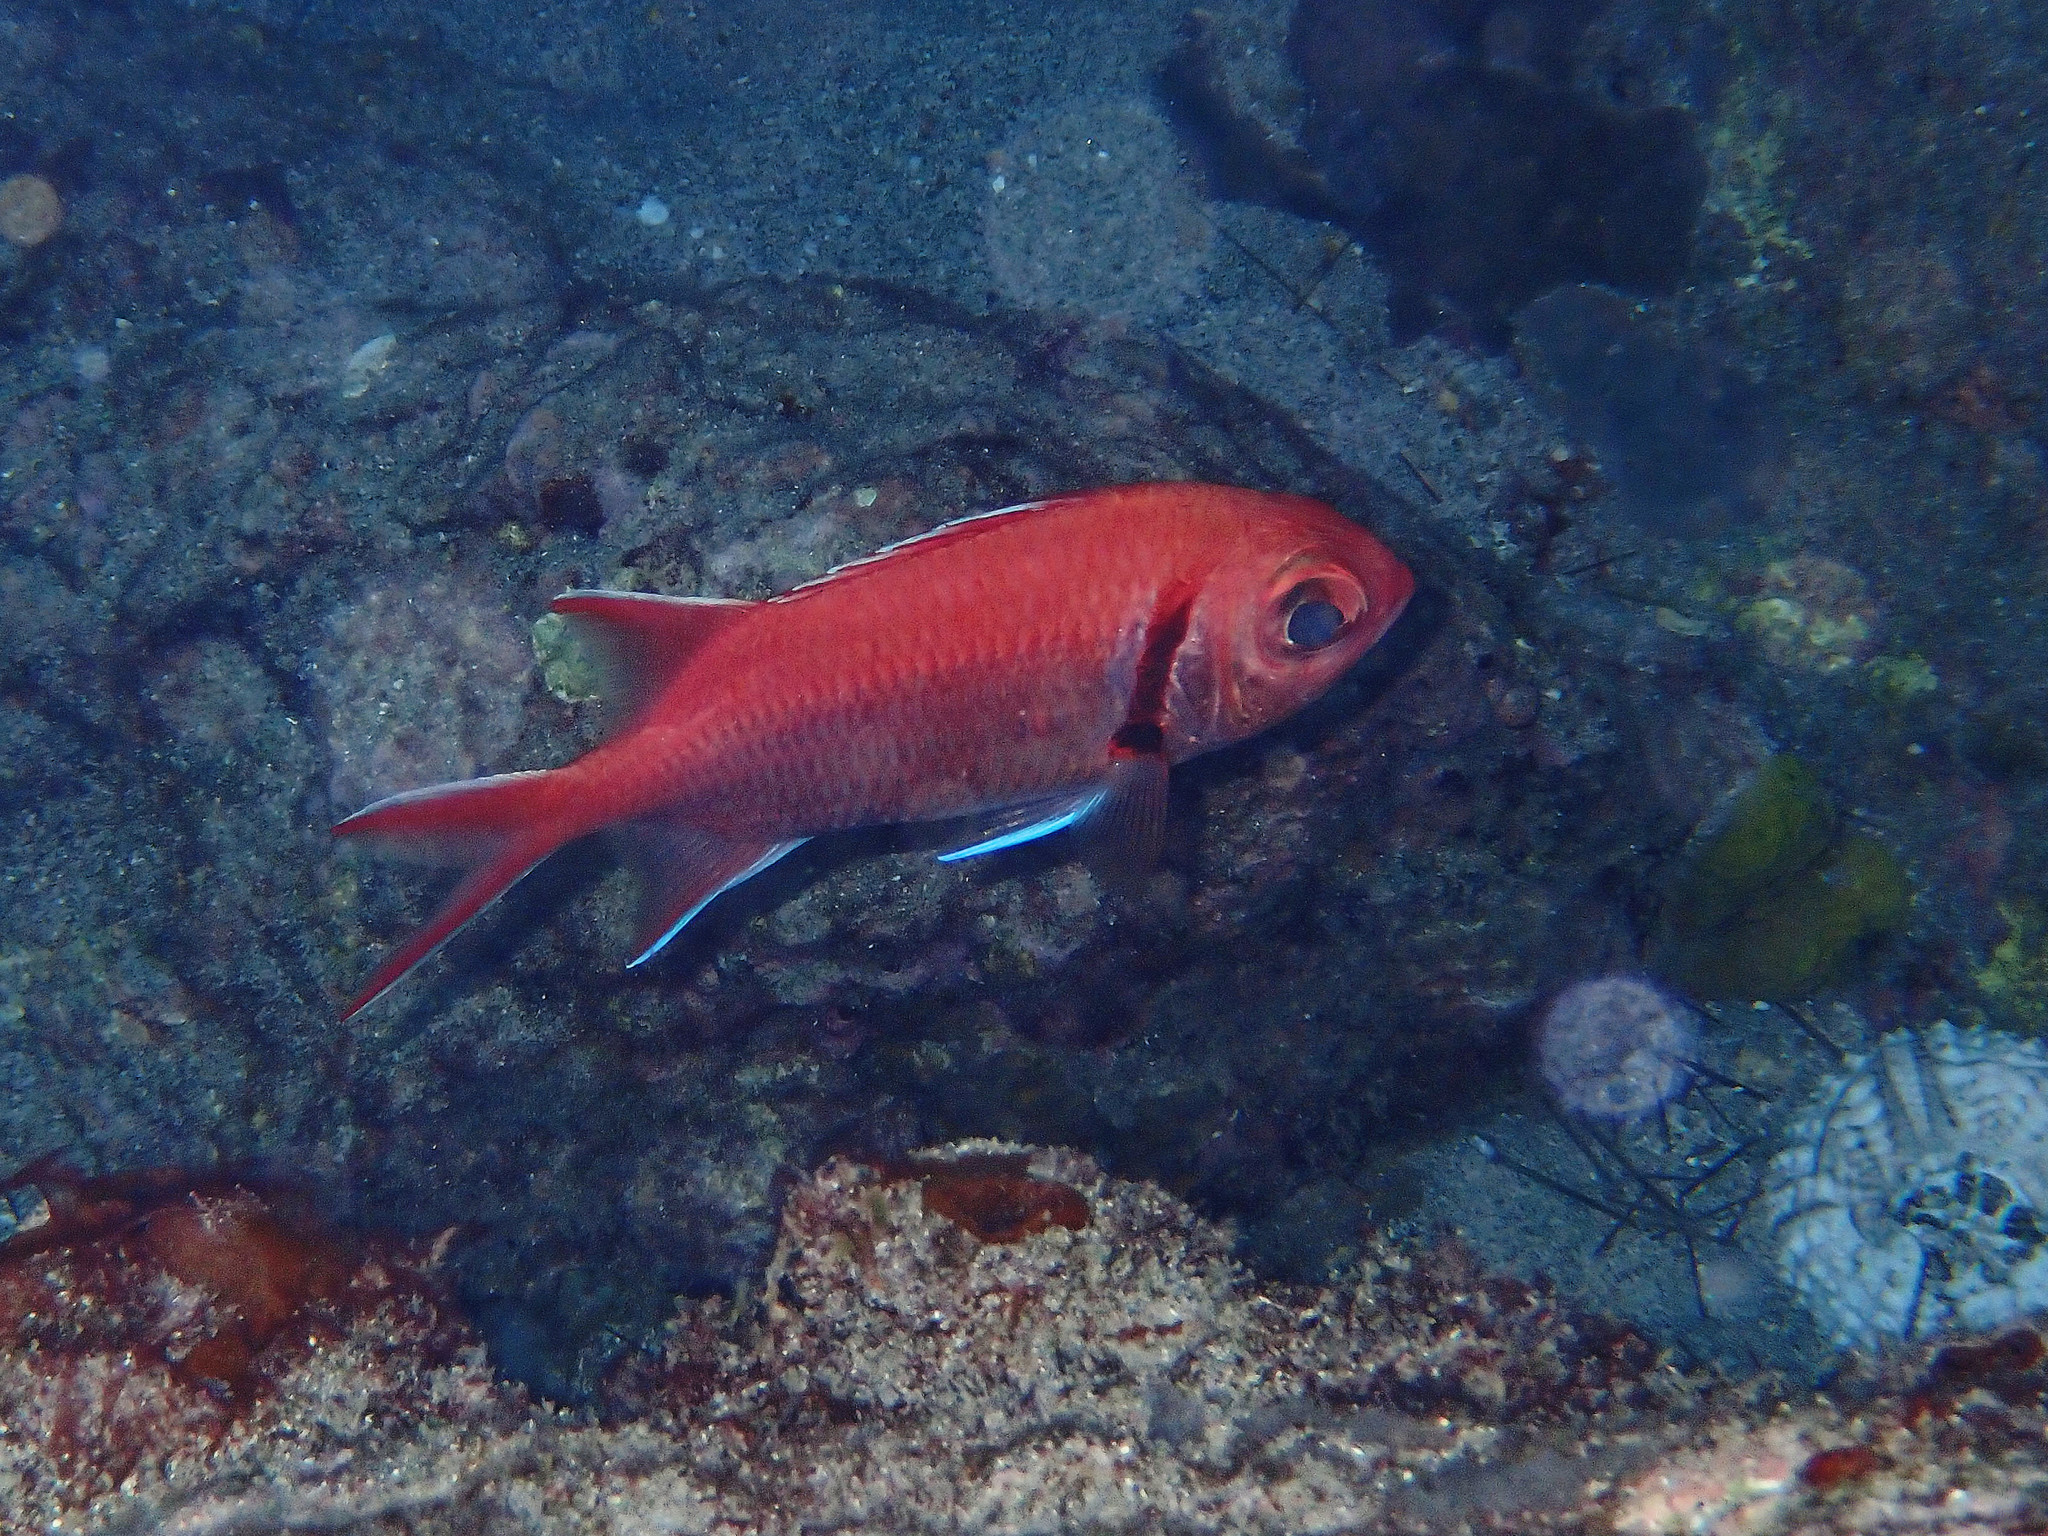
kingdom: Animalia
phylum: Chordata
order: Beryciformes
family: Holocentridae
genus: Myripristis
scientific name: Myripristis jacobus
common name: Blackbar soldierfish
